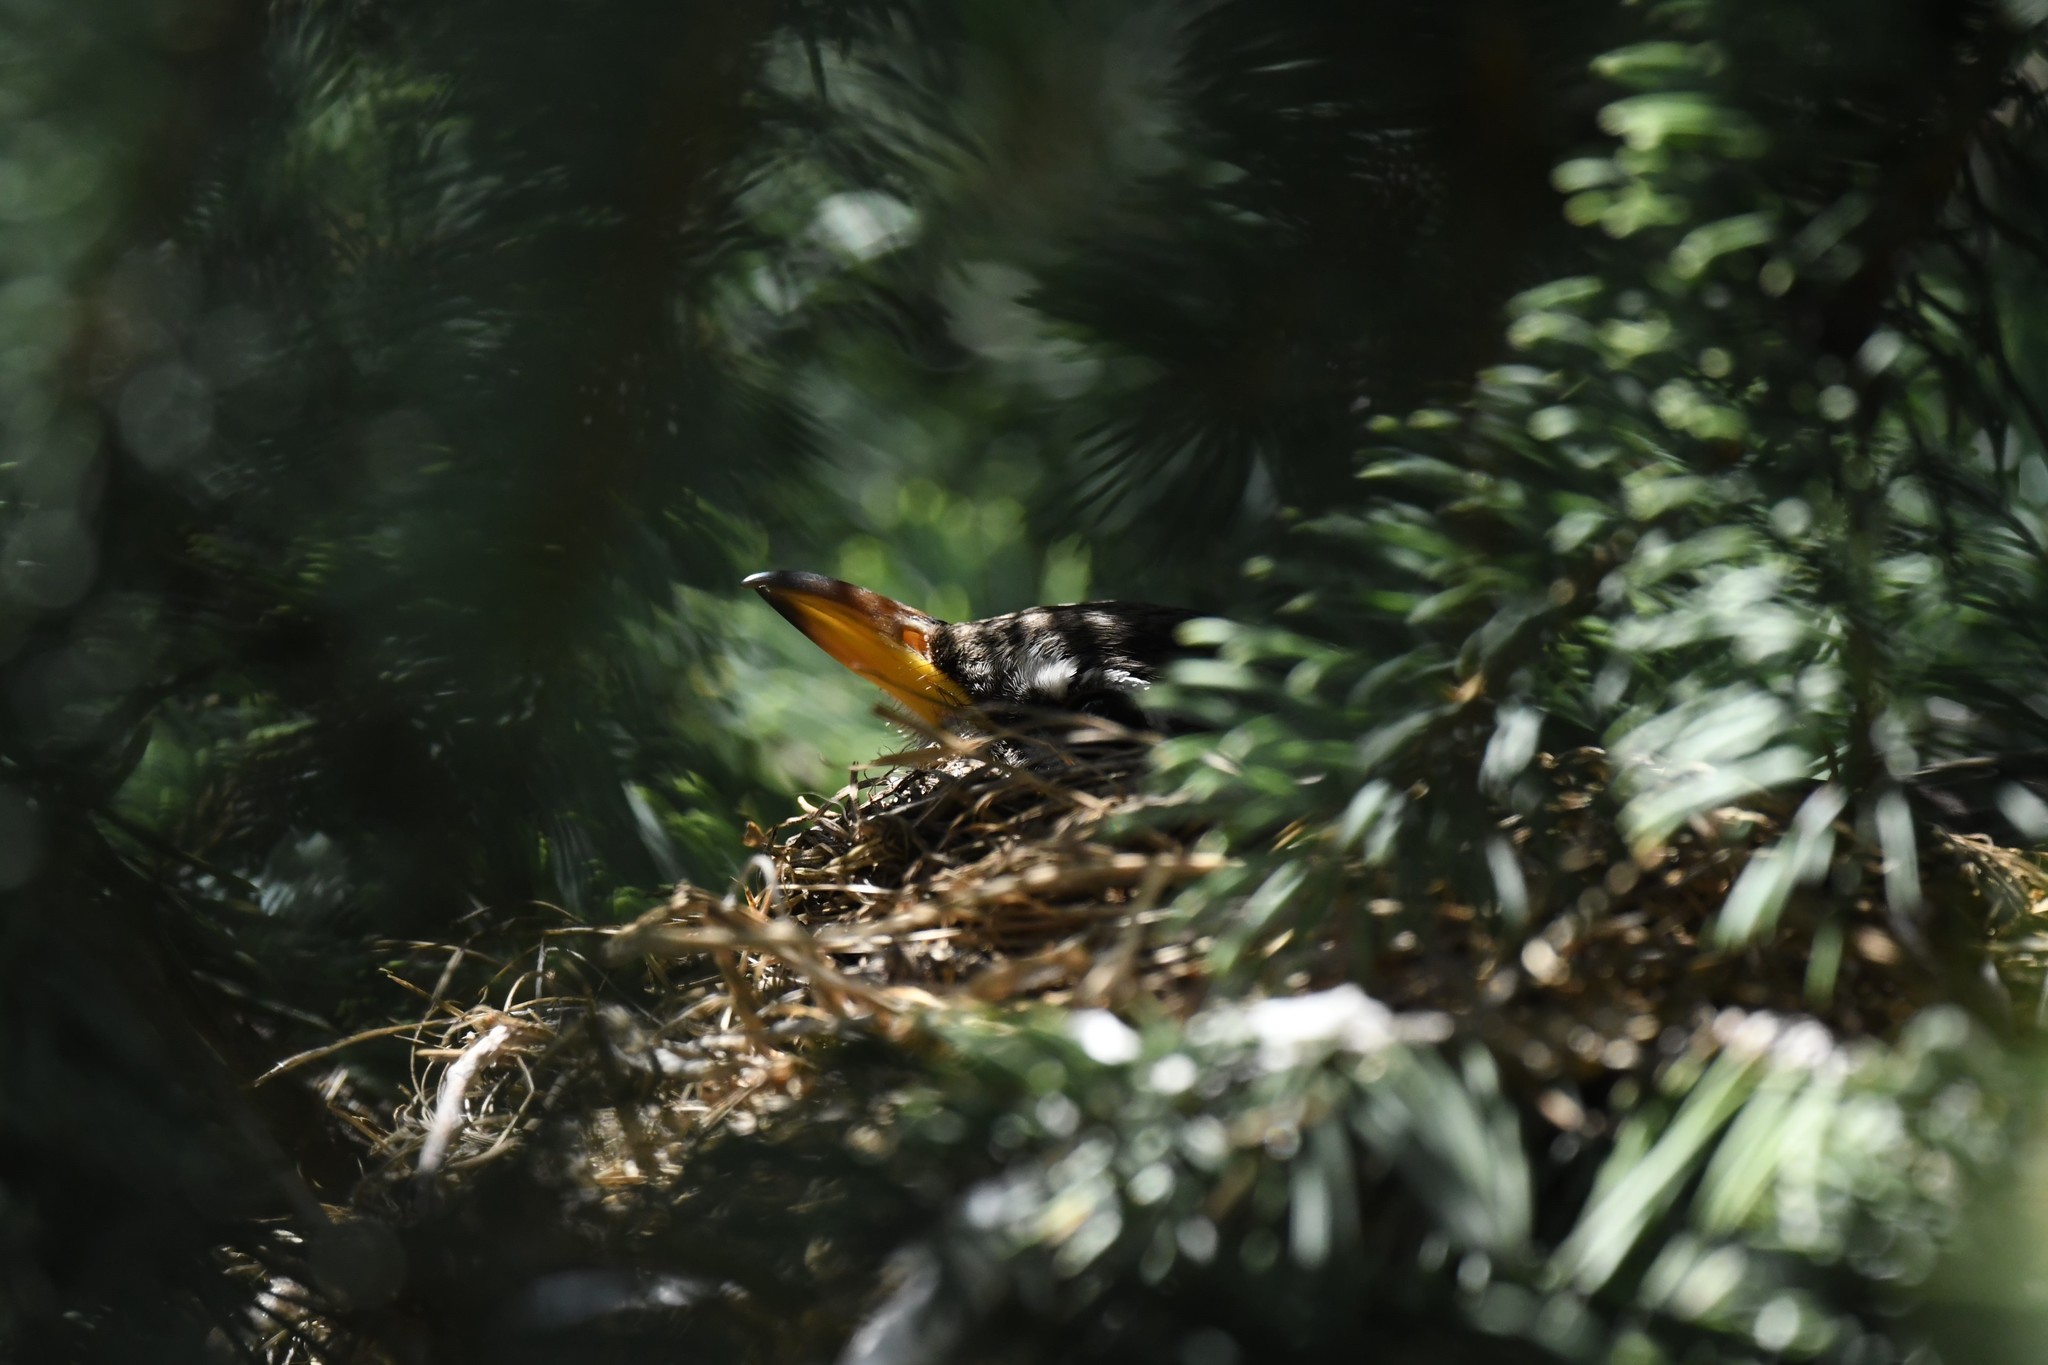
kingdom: Animalia
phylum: Chordata
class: Aves
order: Passeriformes
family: Turdidae
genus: Turdus
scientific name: Turdus migratorius
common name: American robin
